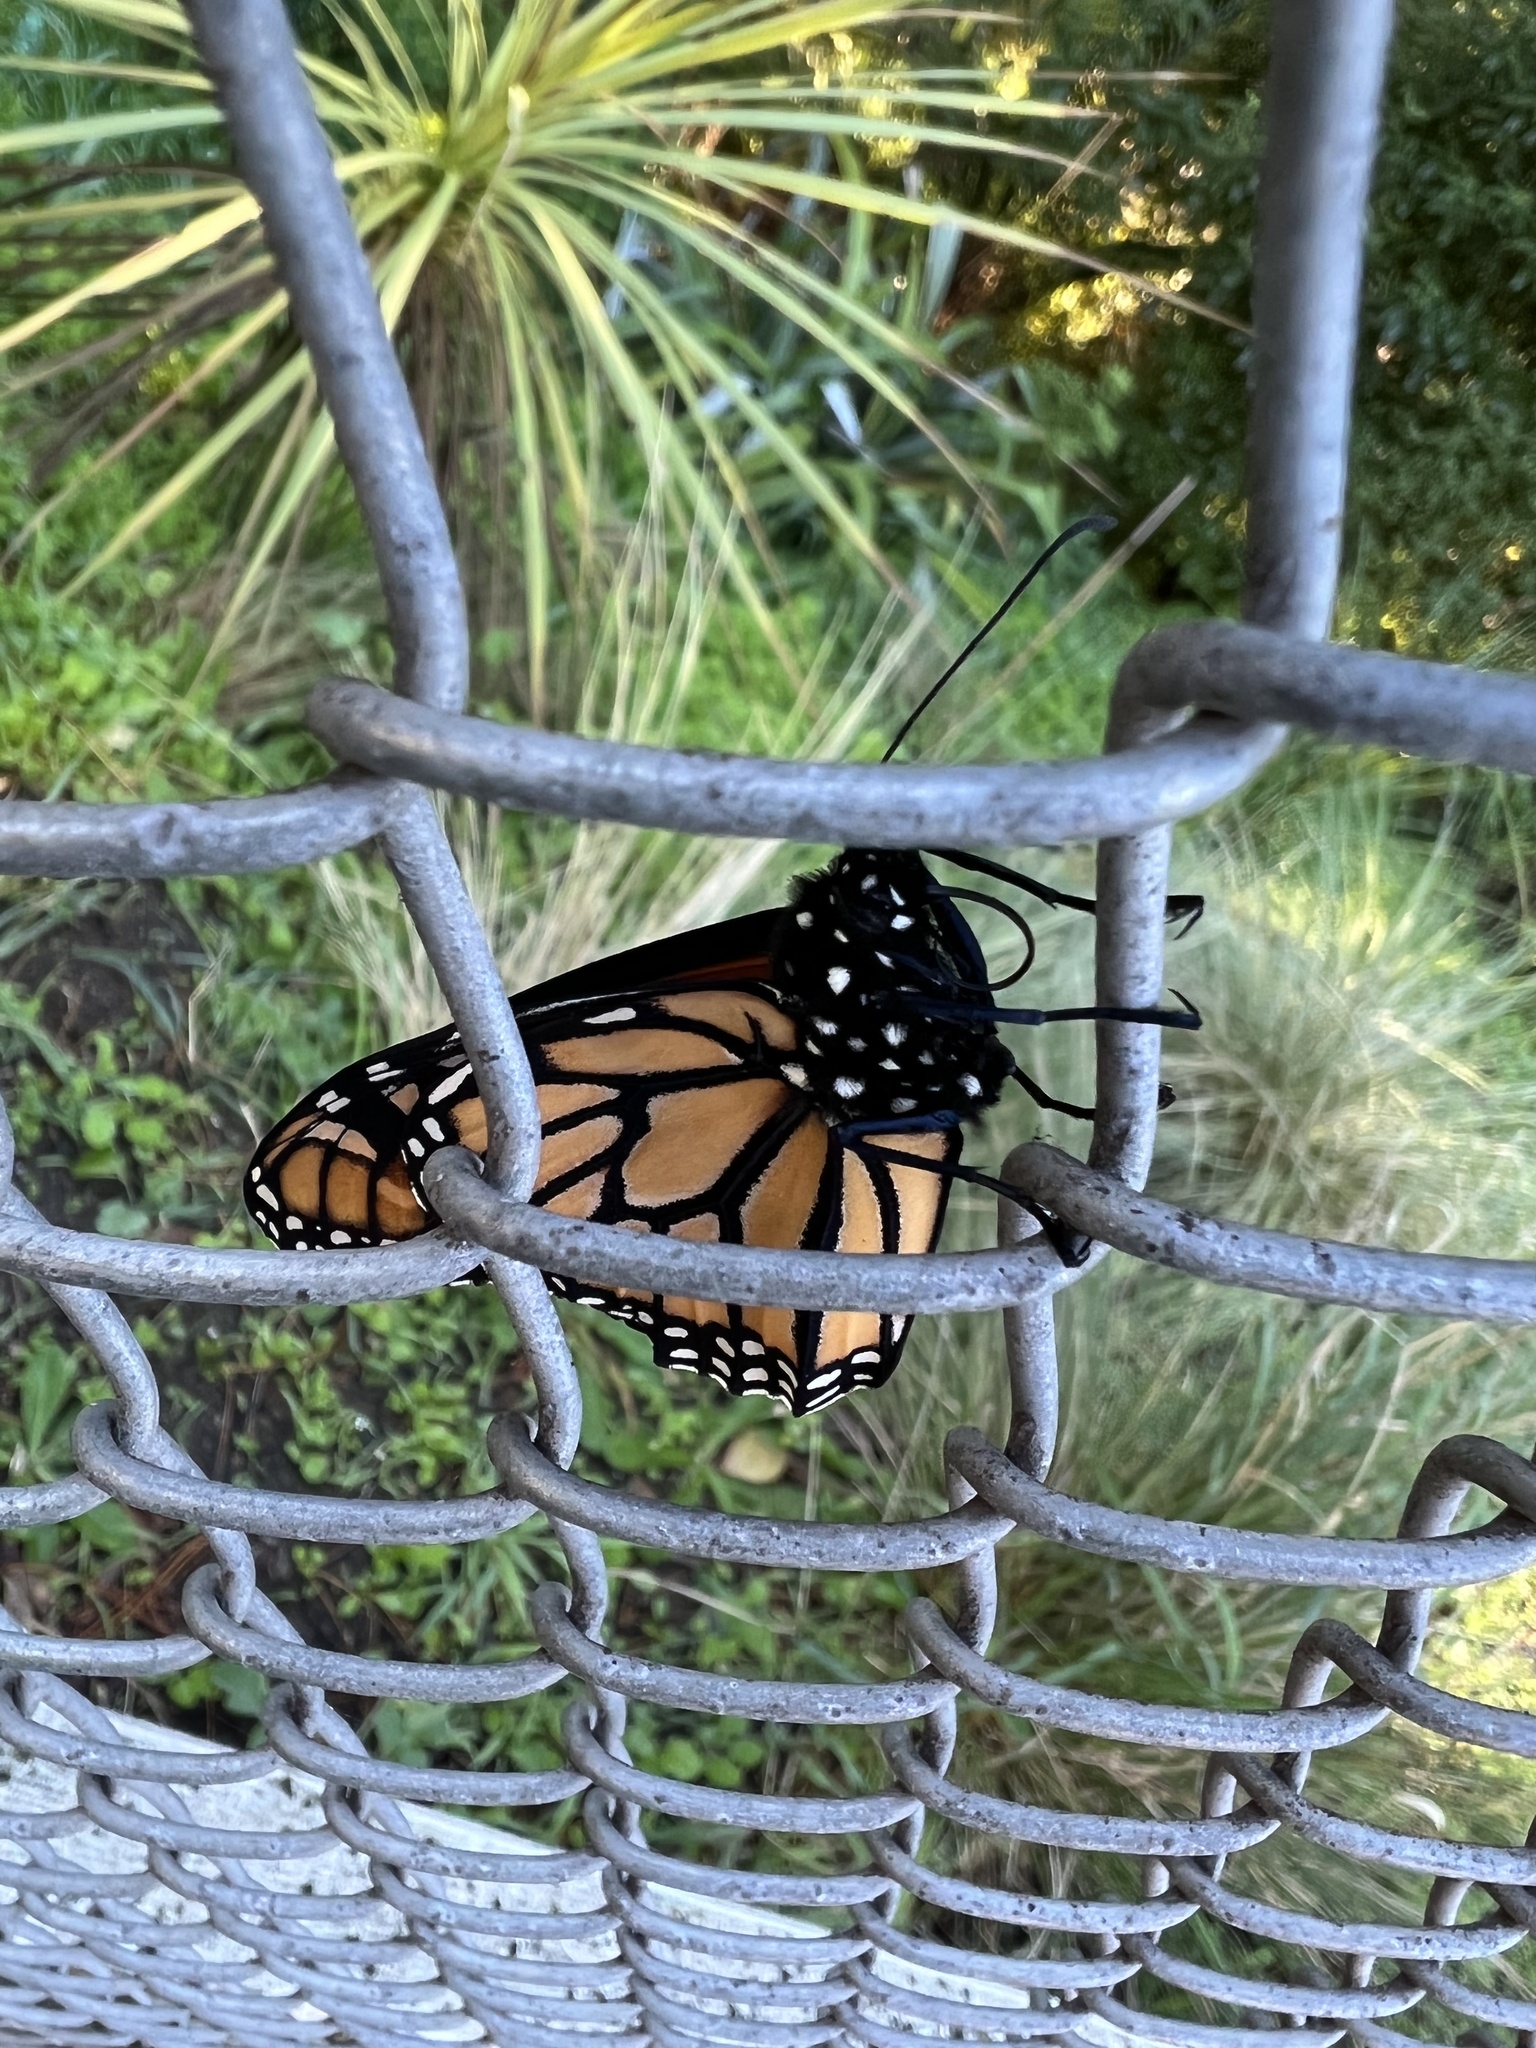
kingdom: Animalia
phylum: Arthropoda
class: Insecta
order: Lepidoptera
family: Nymphalidae
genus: Danaus
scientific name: Danaus plexippus
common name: Monarch
